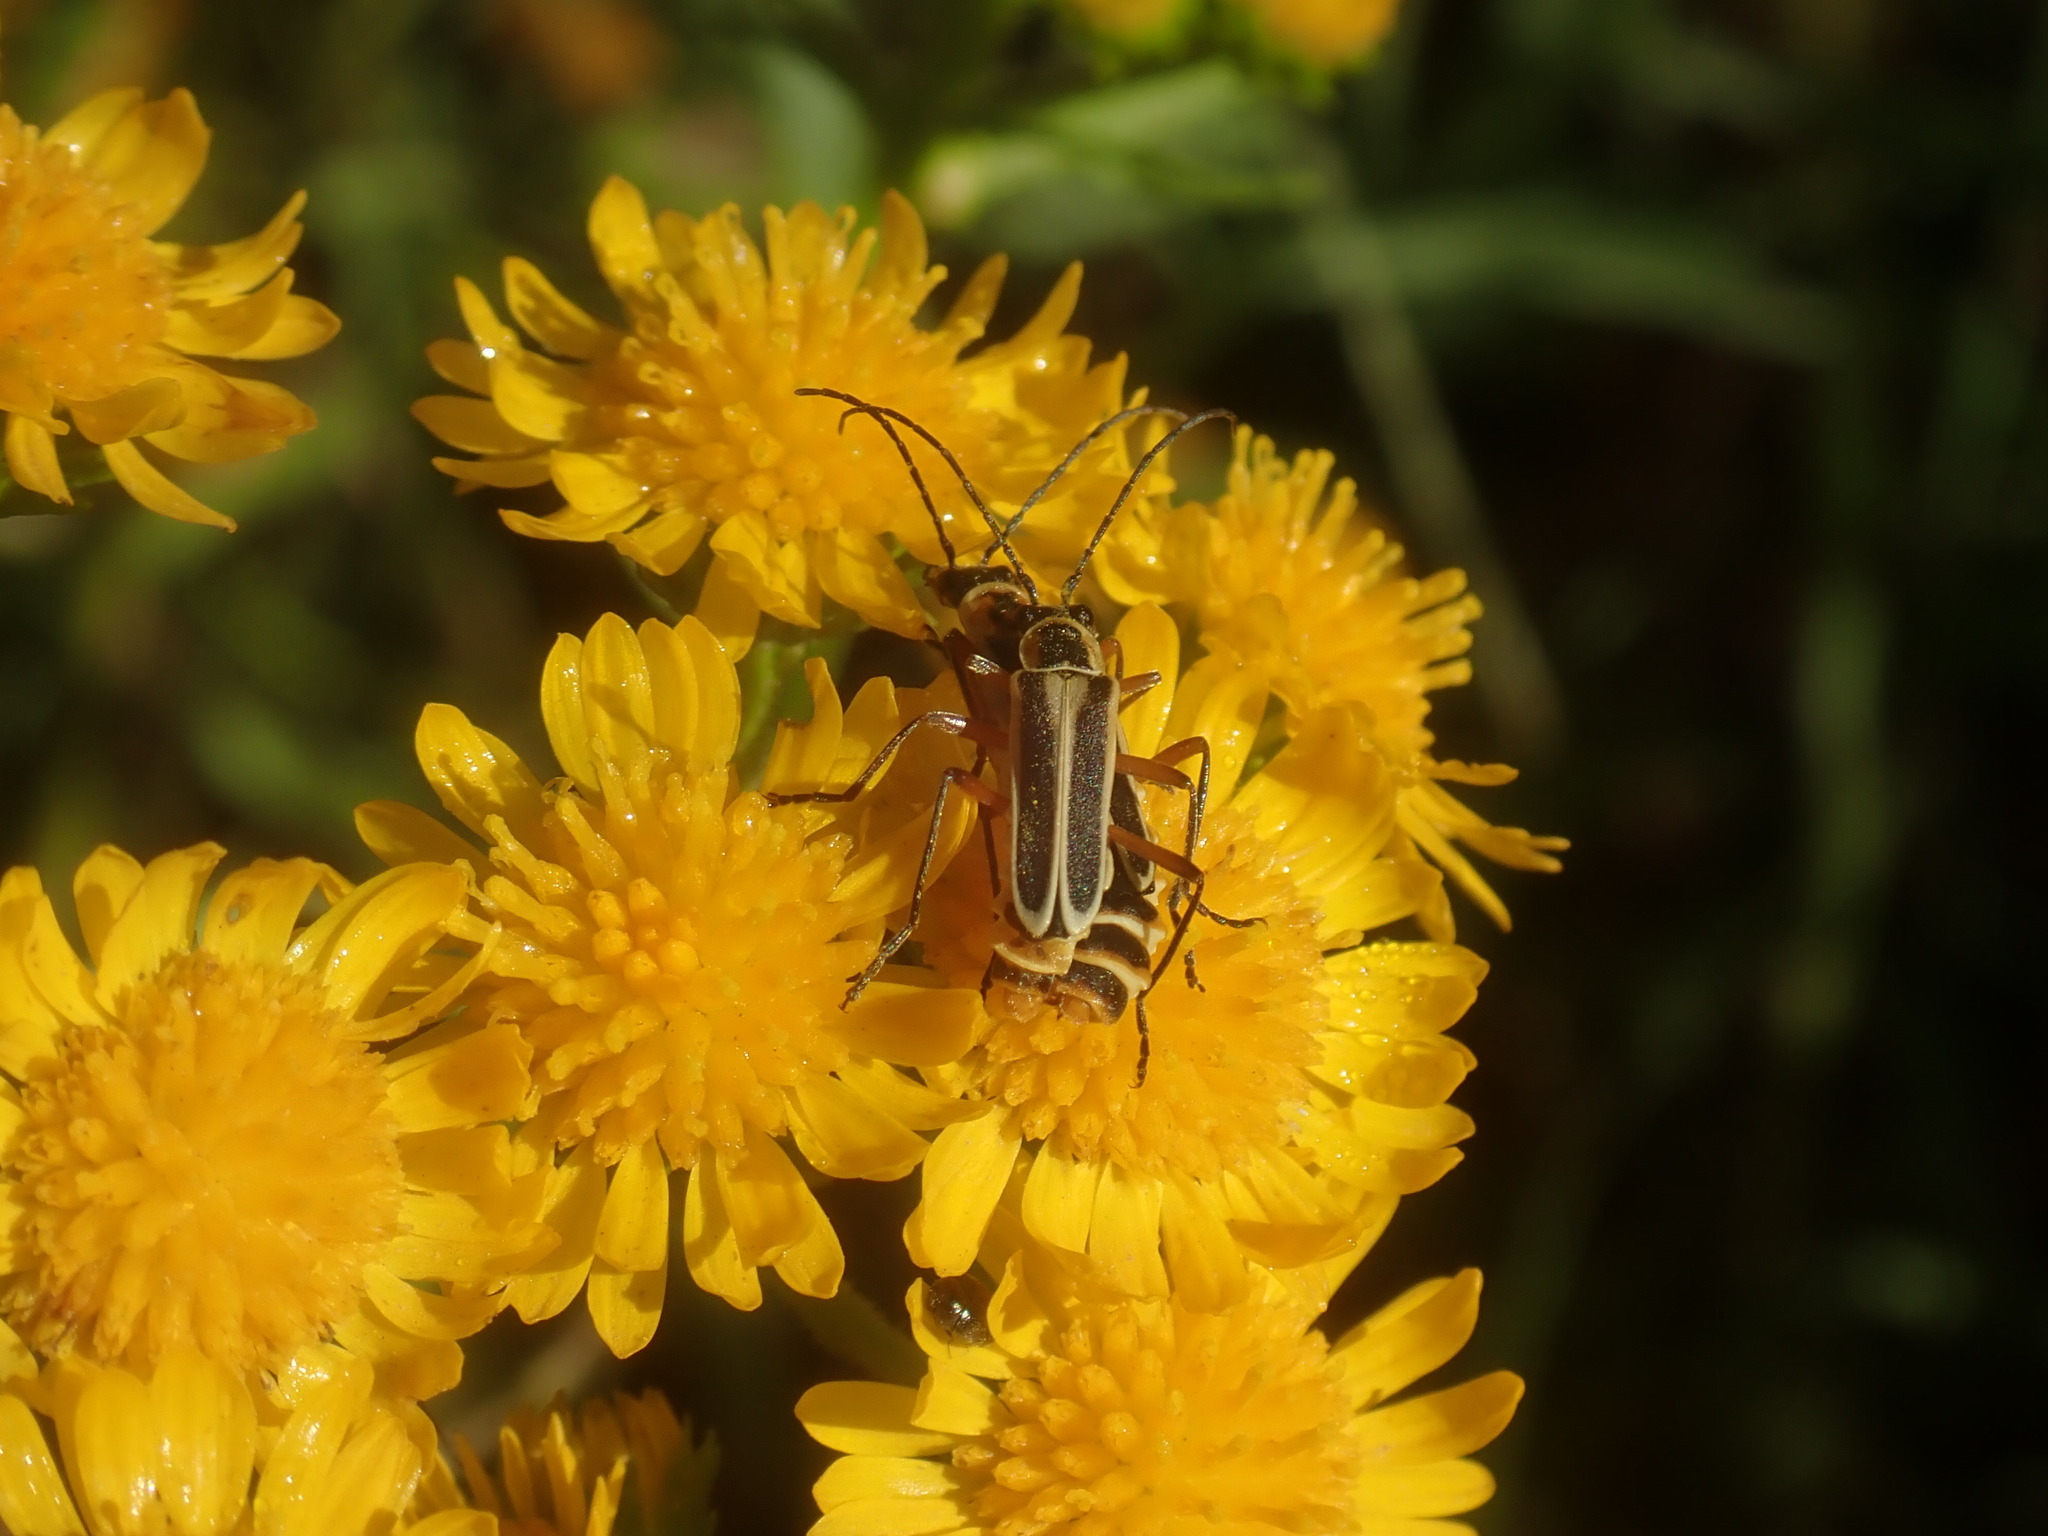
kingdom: Animalia
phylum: Arthropoda
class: Insecta
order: Coleoptera
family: Cantharidae
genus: Chauliognathus
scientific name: Chauliognathus lewisi
